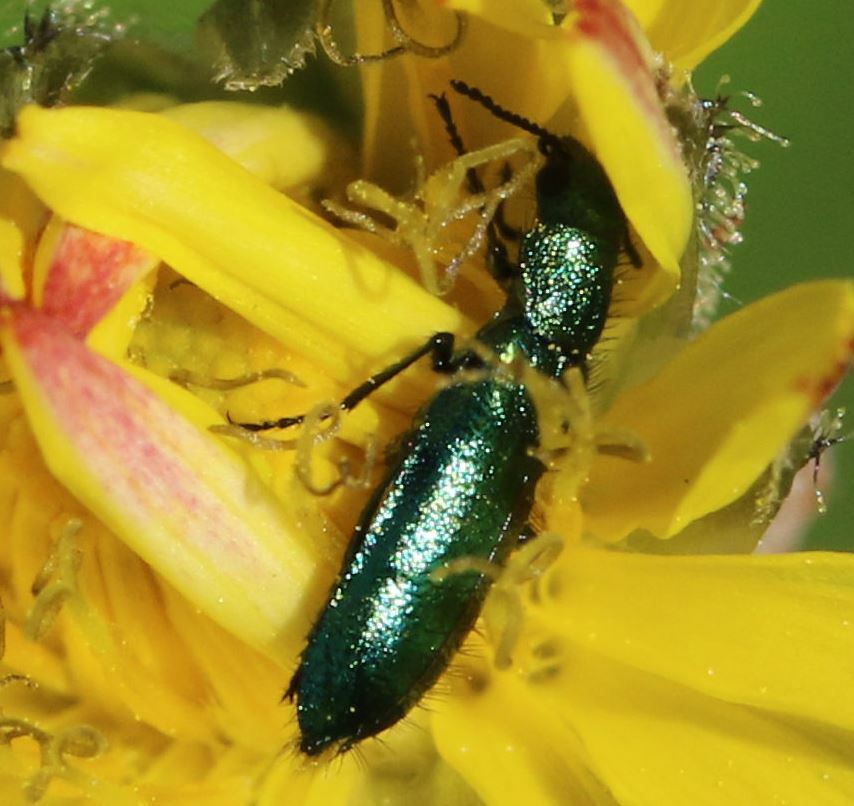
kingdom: Animalia
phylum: Arthropoda
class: Insecta
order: Coleoptera
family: Dasytidae
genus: Psilothrix
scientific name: Psilothrix viridicoerulea
